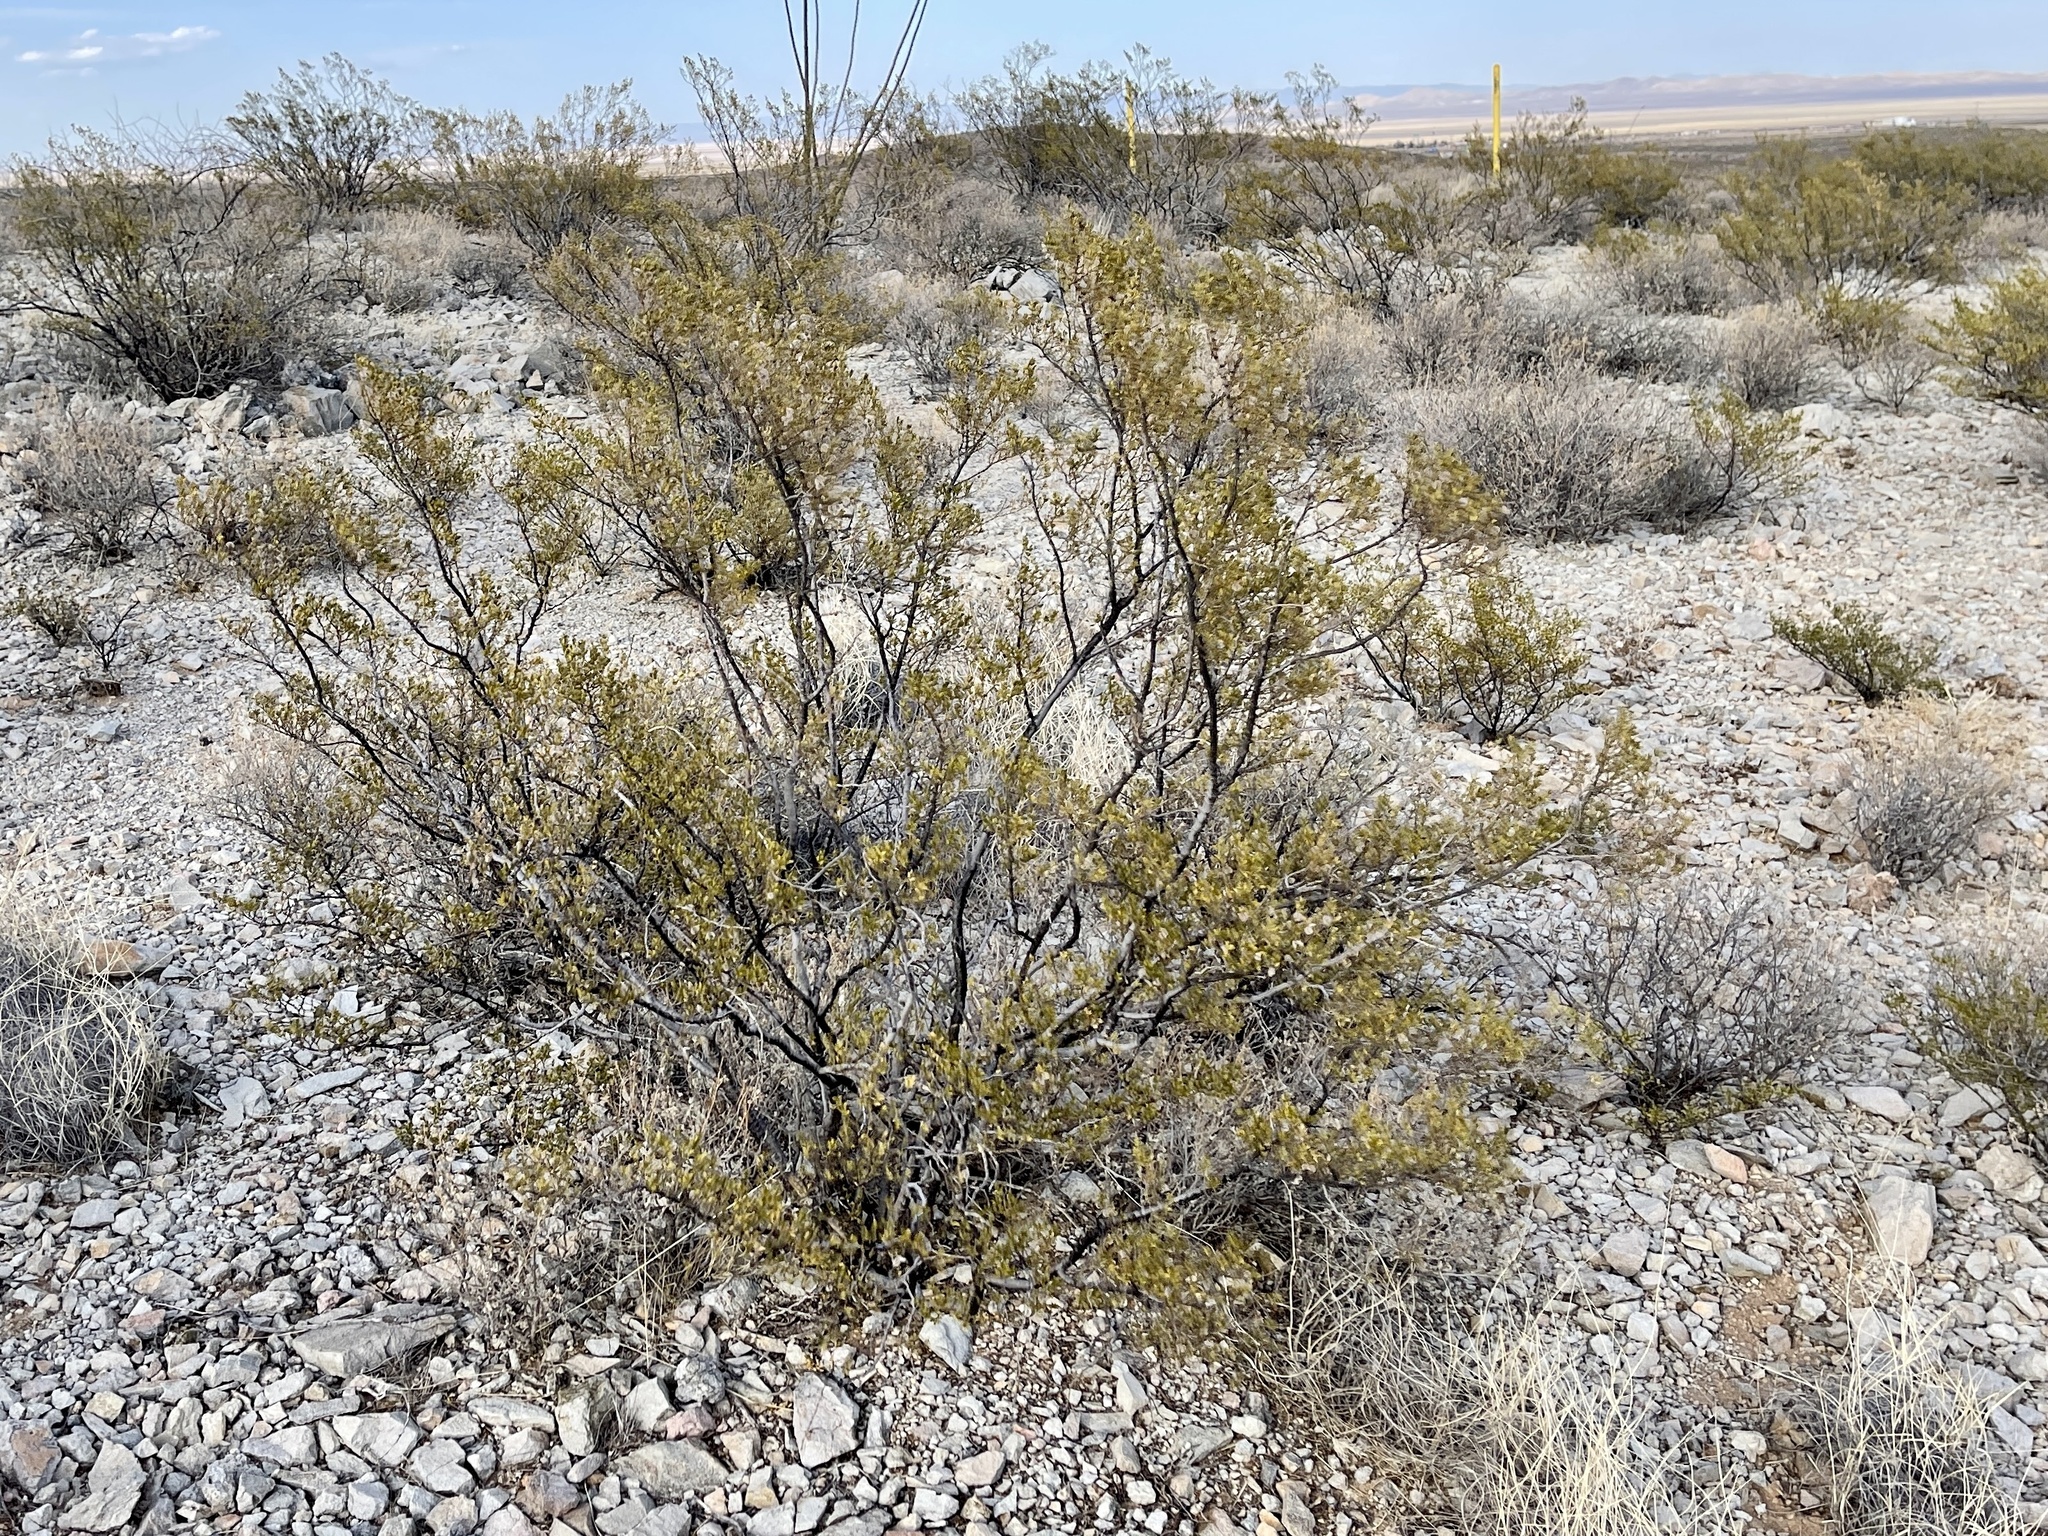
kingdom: Plantae
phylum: Tracheophyta
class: Magnoliopsida
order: Zygophyllales
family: Zygophyllaceae
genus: Larrea
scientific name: Larrea tridentata
